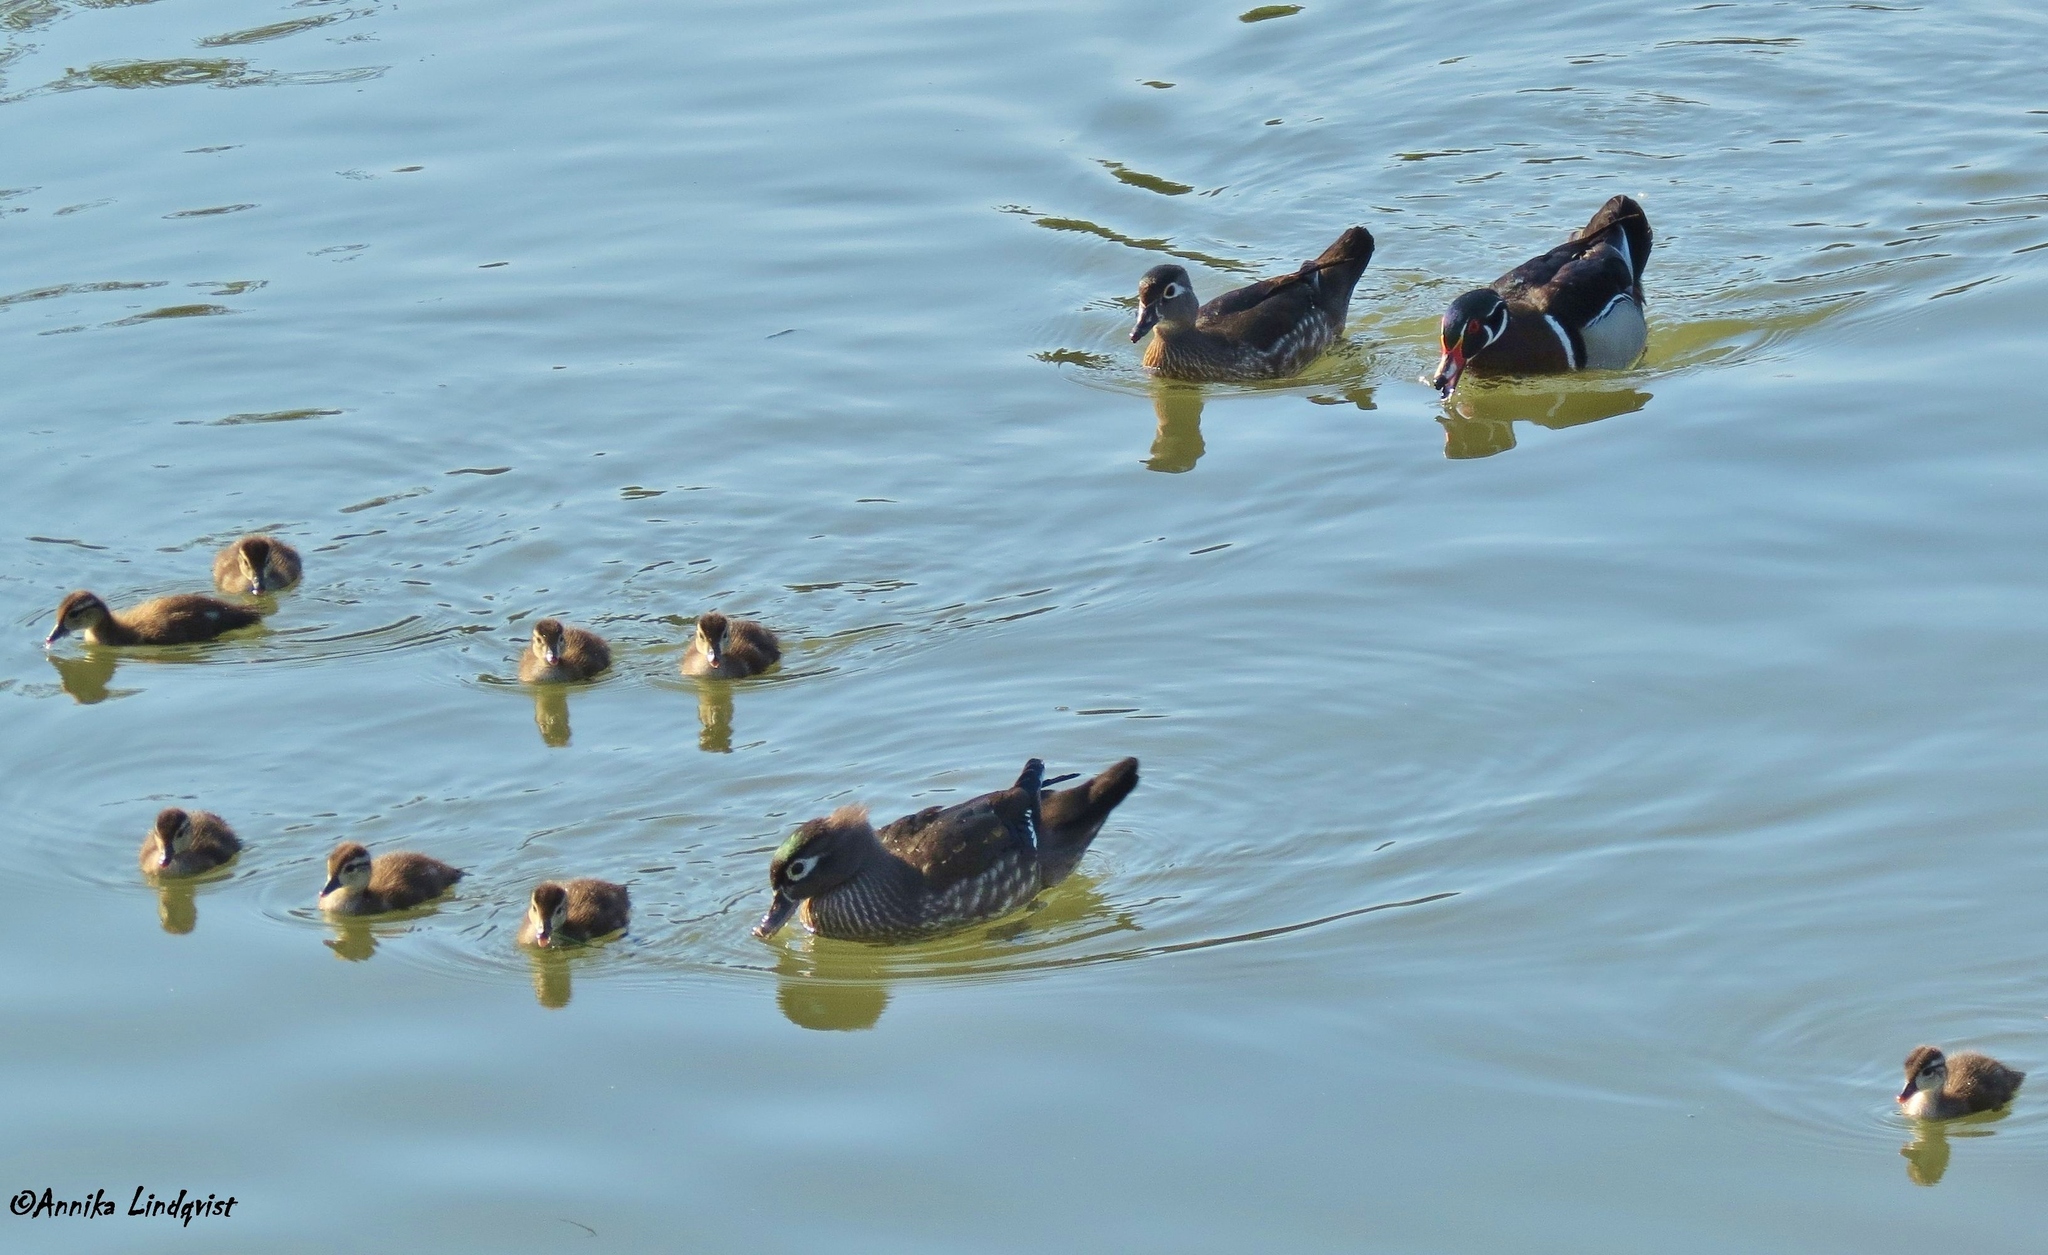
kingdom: Animalia
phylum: Chordata
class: Aves
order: Anseriformes
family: Anatidae
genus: Aix
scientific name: Aix sponsa
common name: Wood duck
